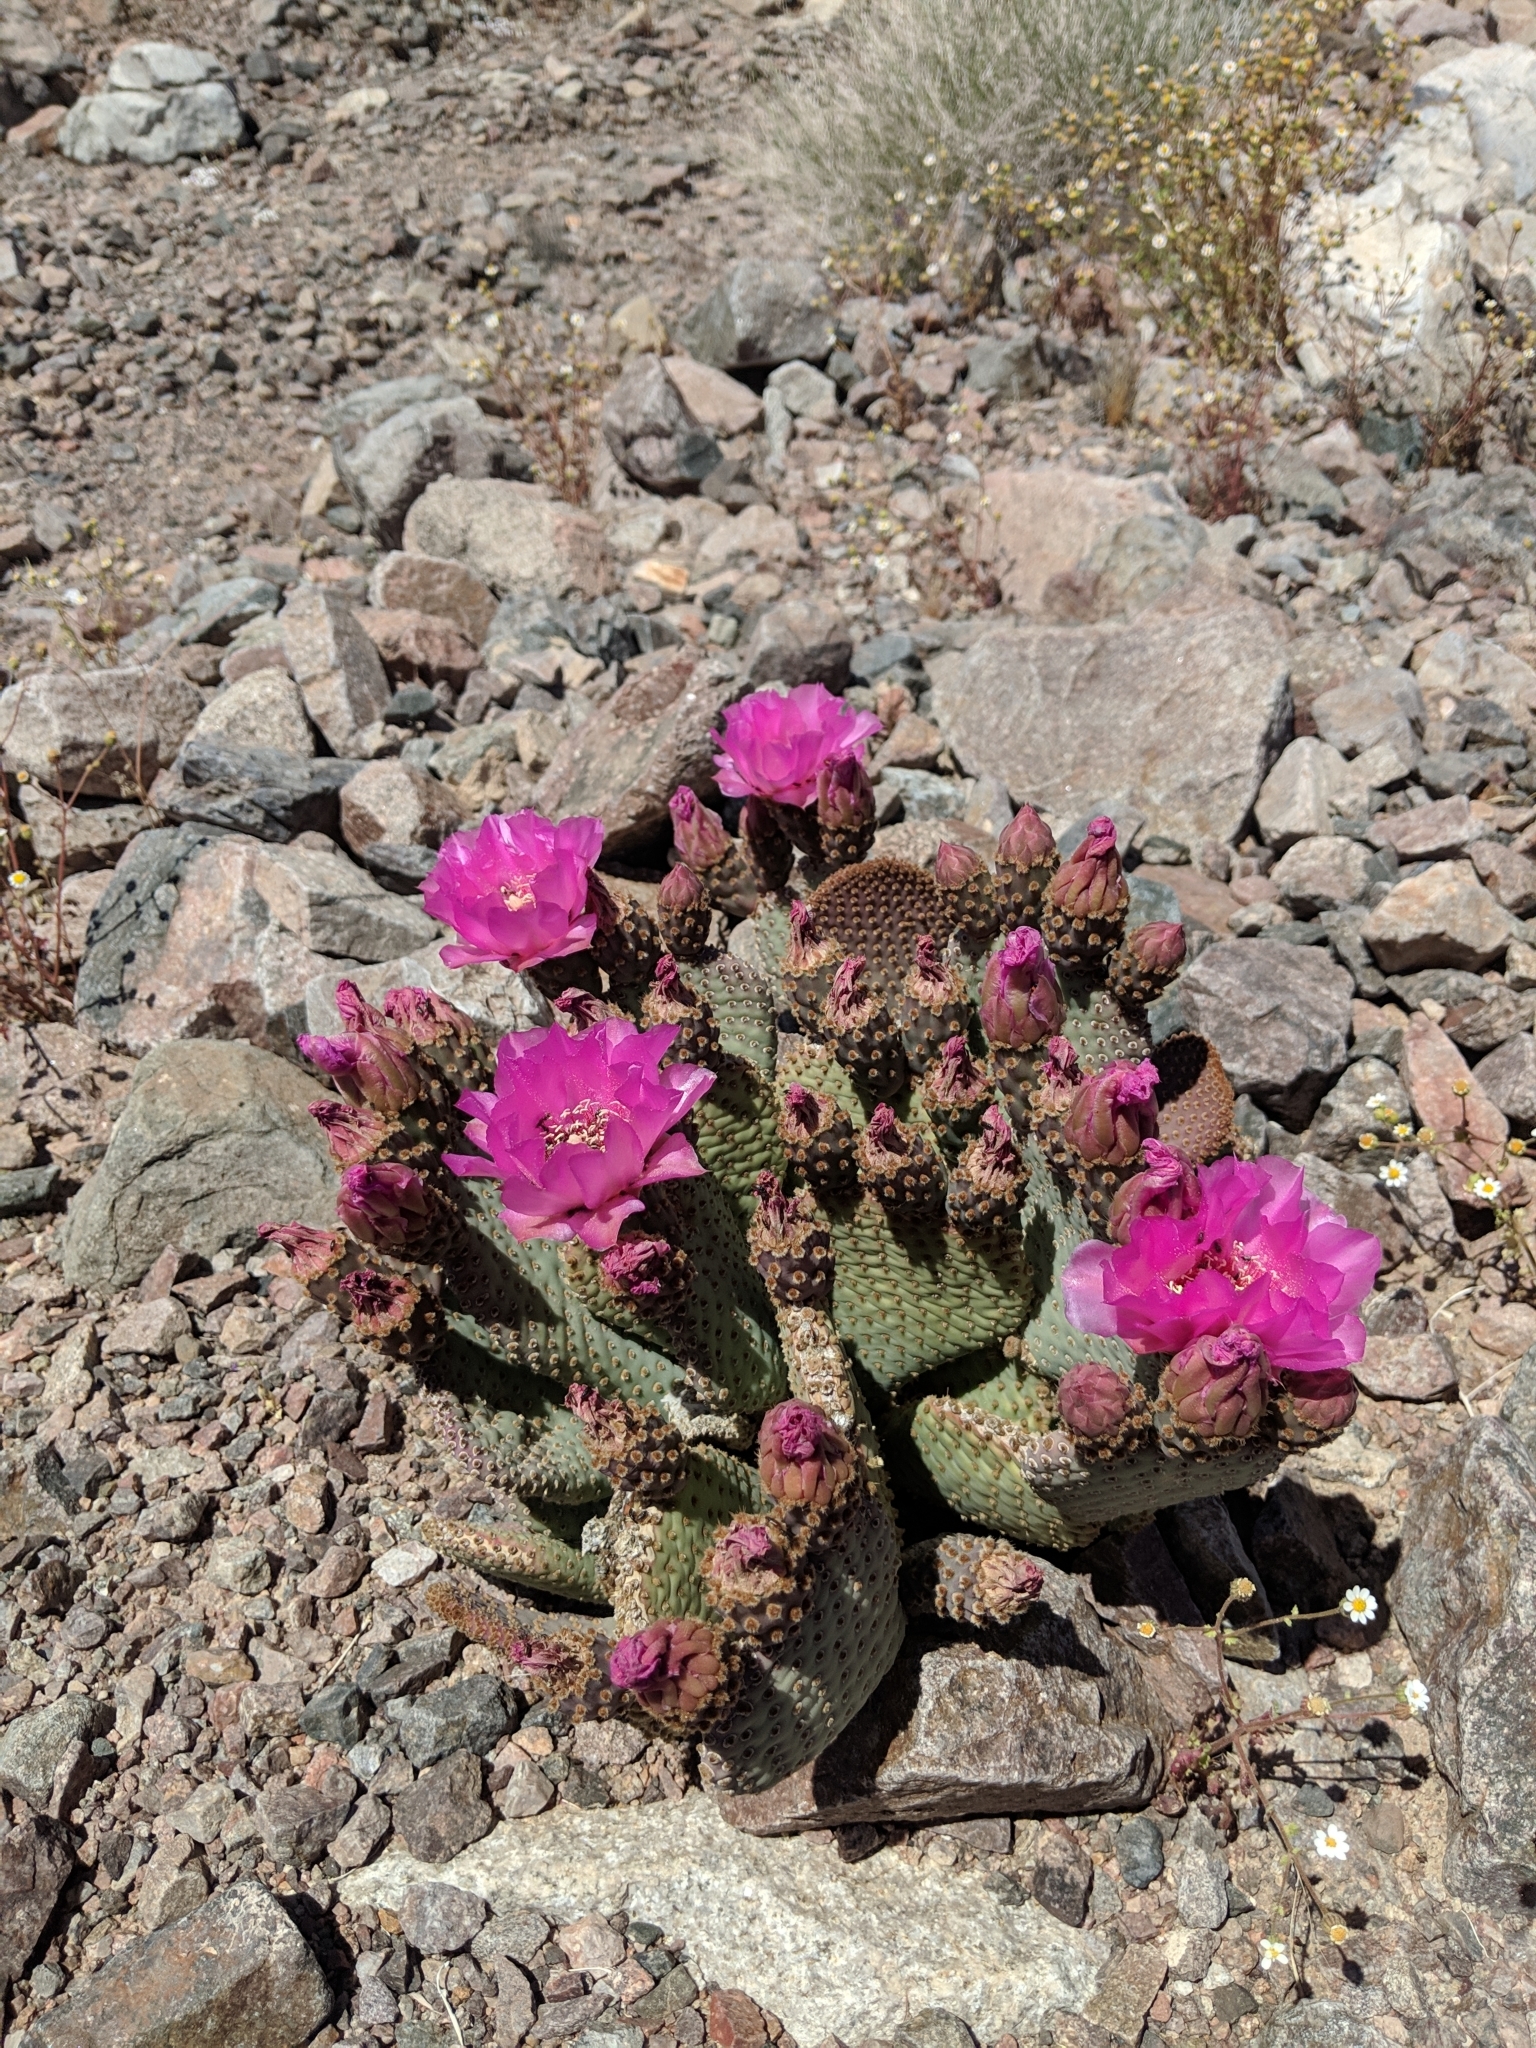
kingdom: Plantae
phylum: Tracheophyta
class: Magnoliopsida
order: Caryophyllales
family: Cactaceae
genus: Opuntia
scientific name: Opuntia basilaris
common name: Beavertail prickly-pear
